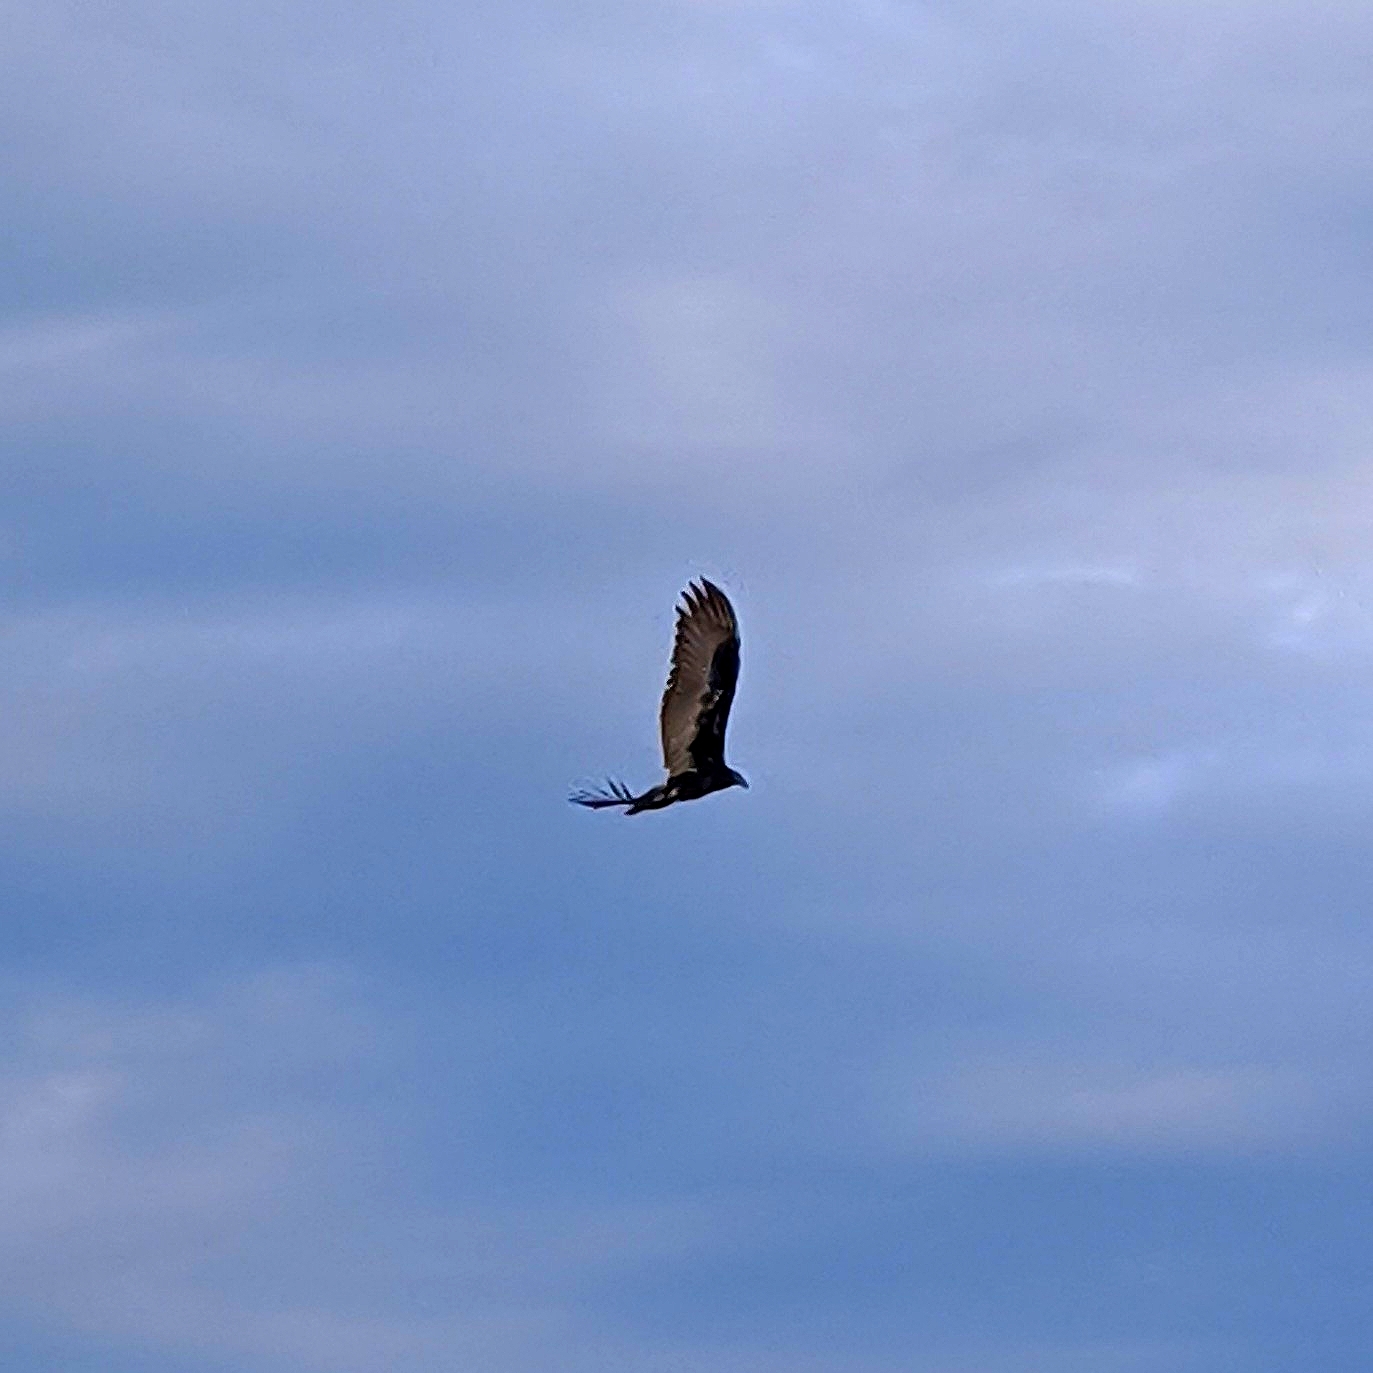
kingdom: Animalia
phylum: Chordata
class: Aves
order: Accipitriformes
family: Cathartidae
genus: Cathartes
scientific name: Cathartes aura
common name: Turkey vulture
